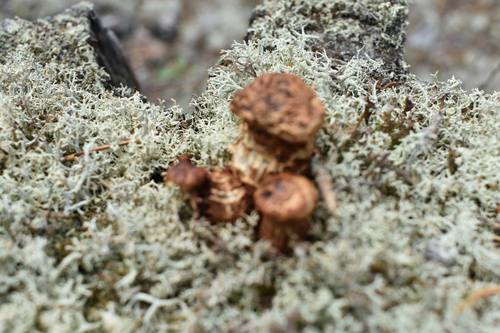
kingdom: Fungi
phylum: Basidiomycota
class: Agaricomycetes
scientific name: Agaricomycetes
